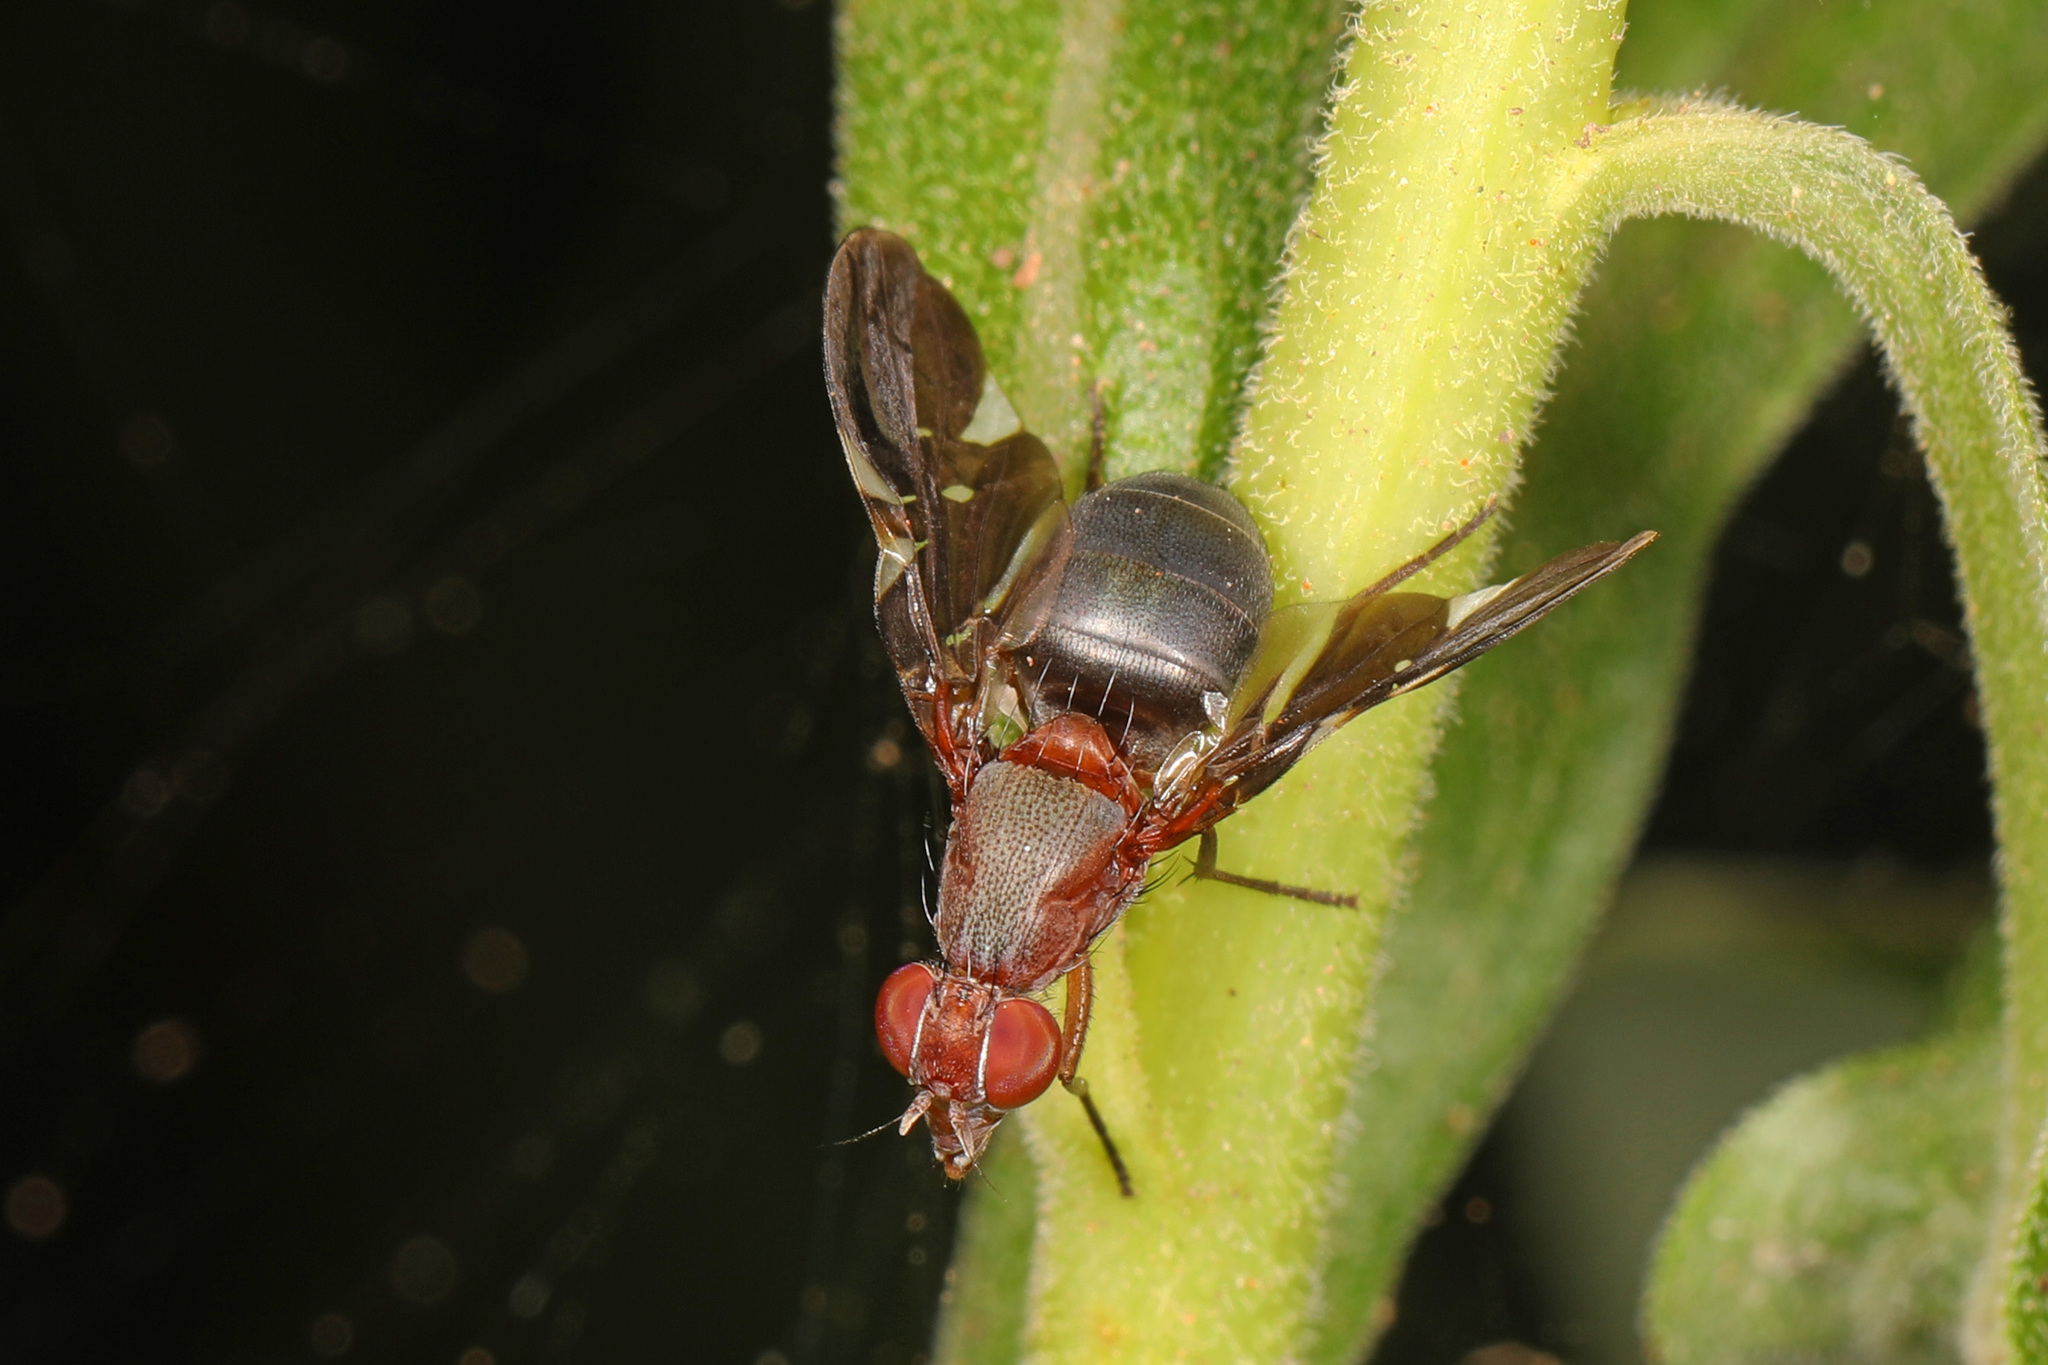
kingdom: Animalia
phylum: Arthropoda
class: Insecta
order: Diptera
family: Ulidiidae
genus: Delphinia
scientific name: Delphinia picta
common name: Common picture-winged fly
